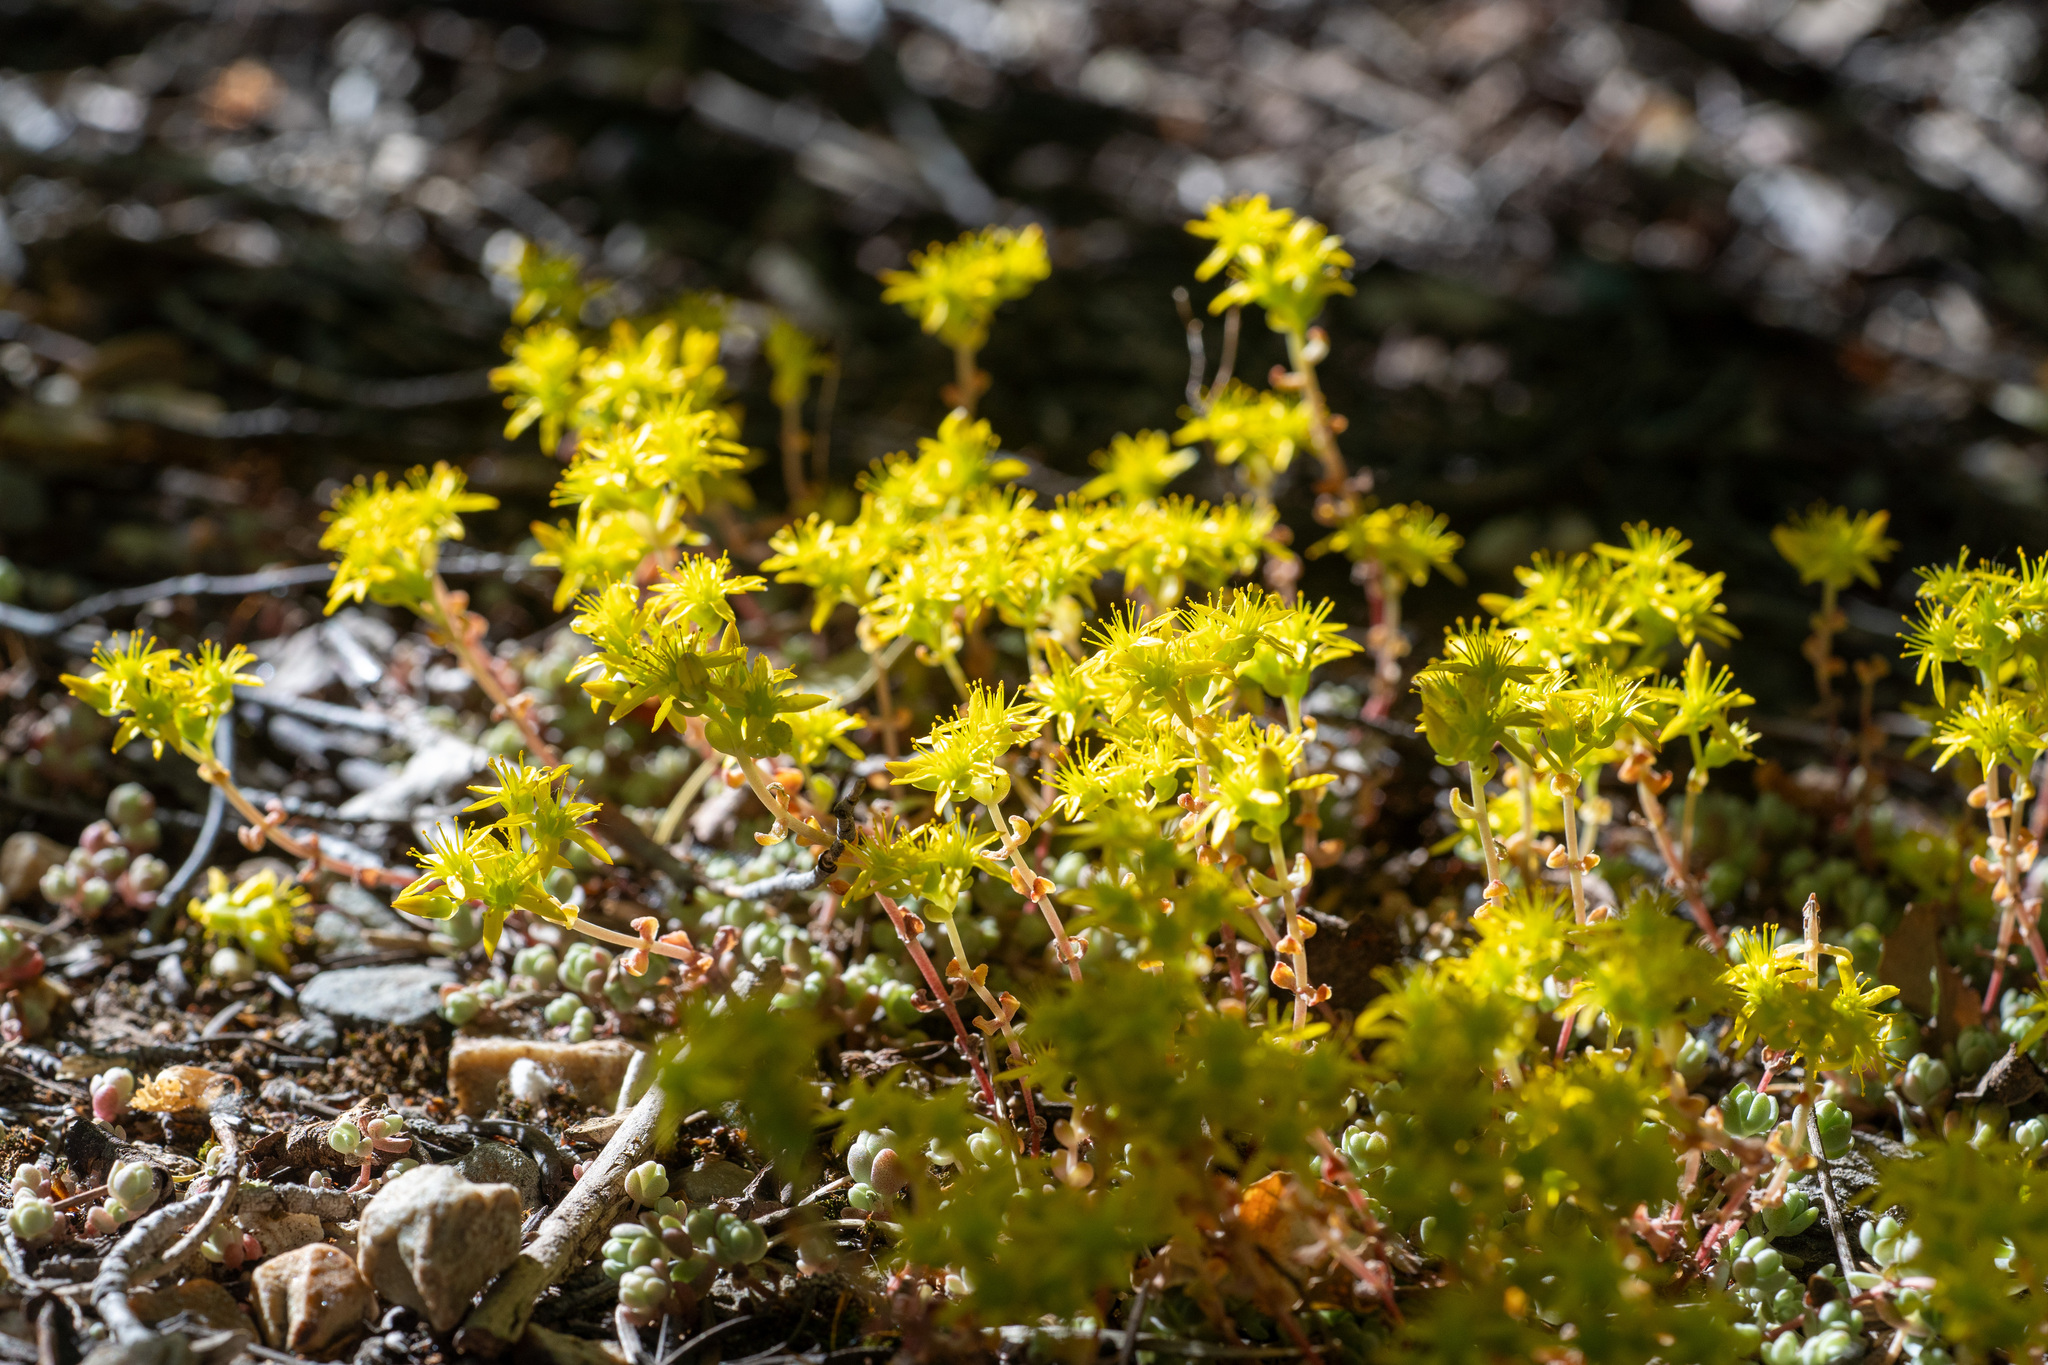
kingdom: Plantae
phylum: Tracheophyta
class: Magnoliopsida
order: Saxifragales
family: Crassulaceae
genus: Sedum
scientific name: Sedum debile
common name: Weak-stem stonecrop
